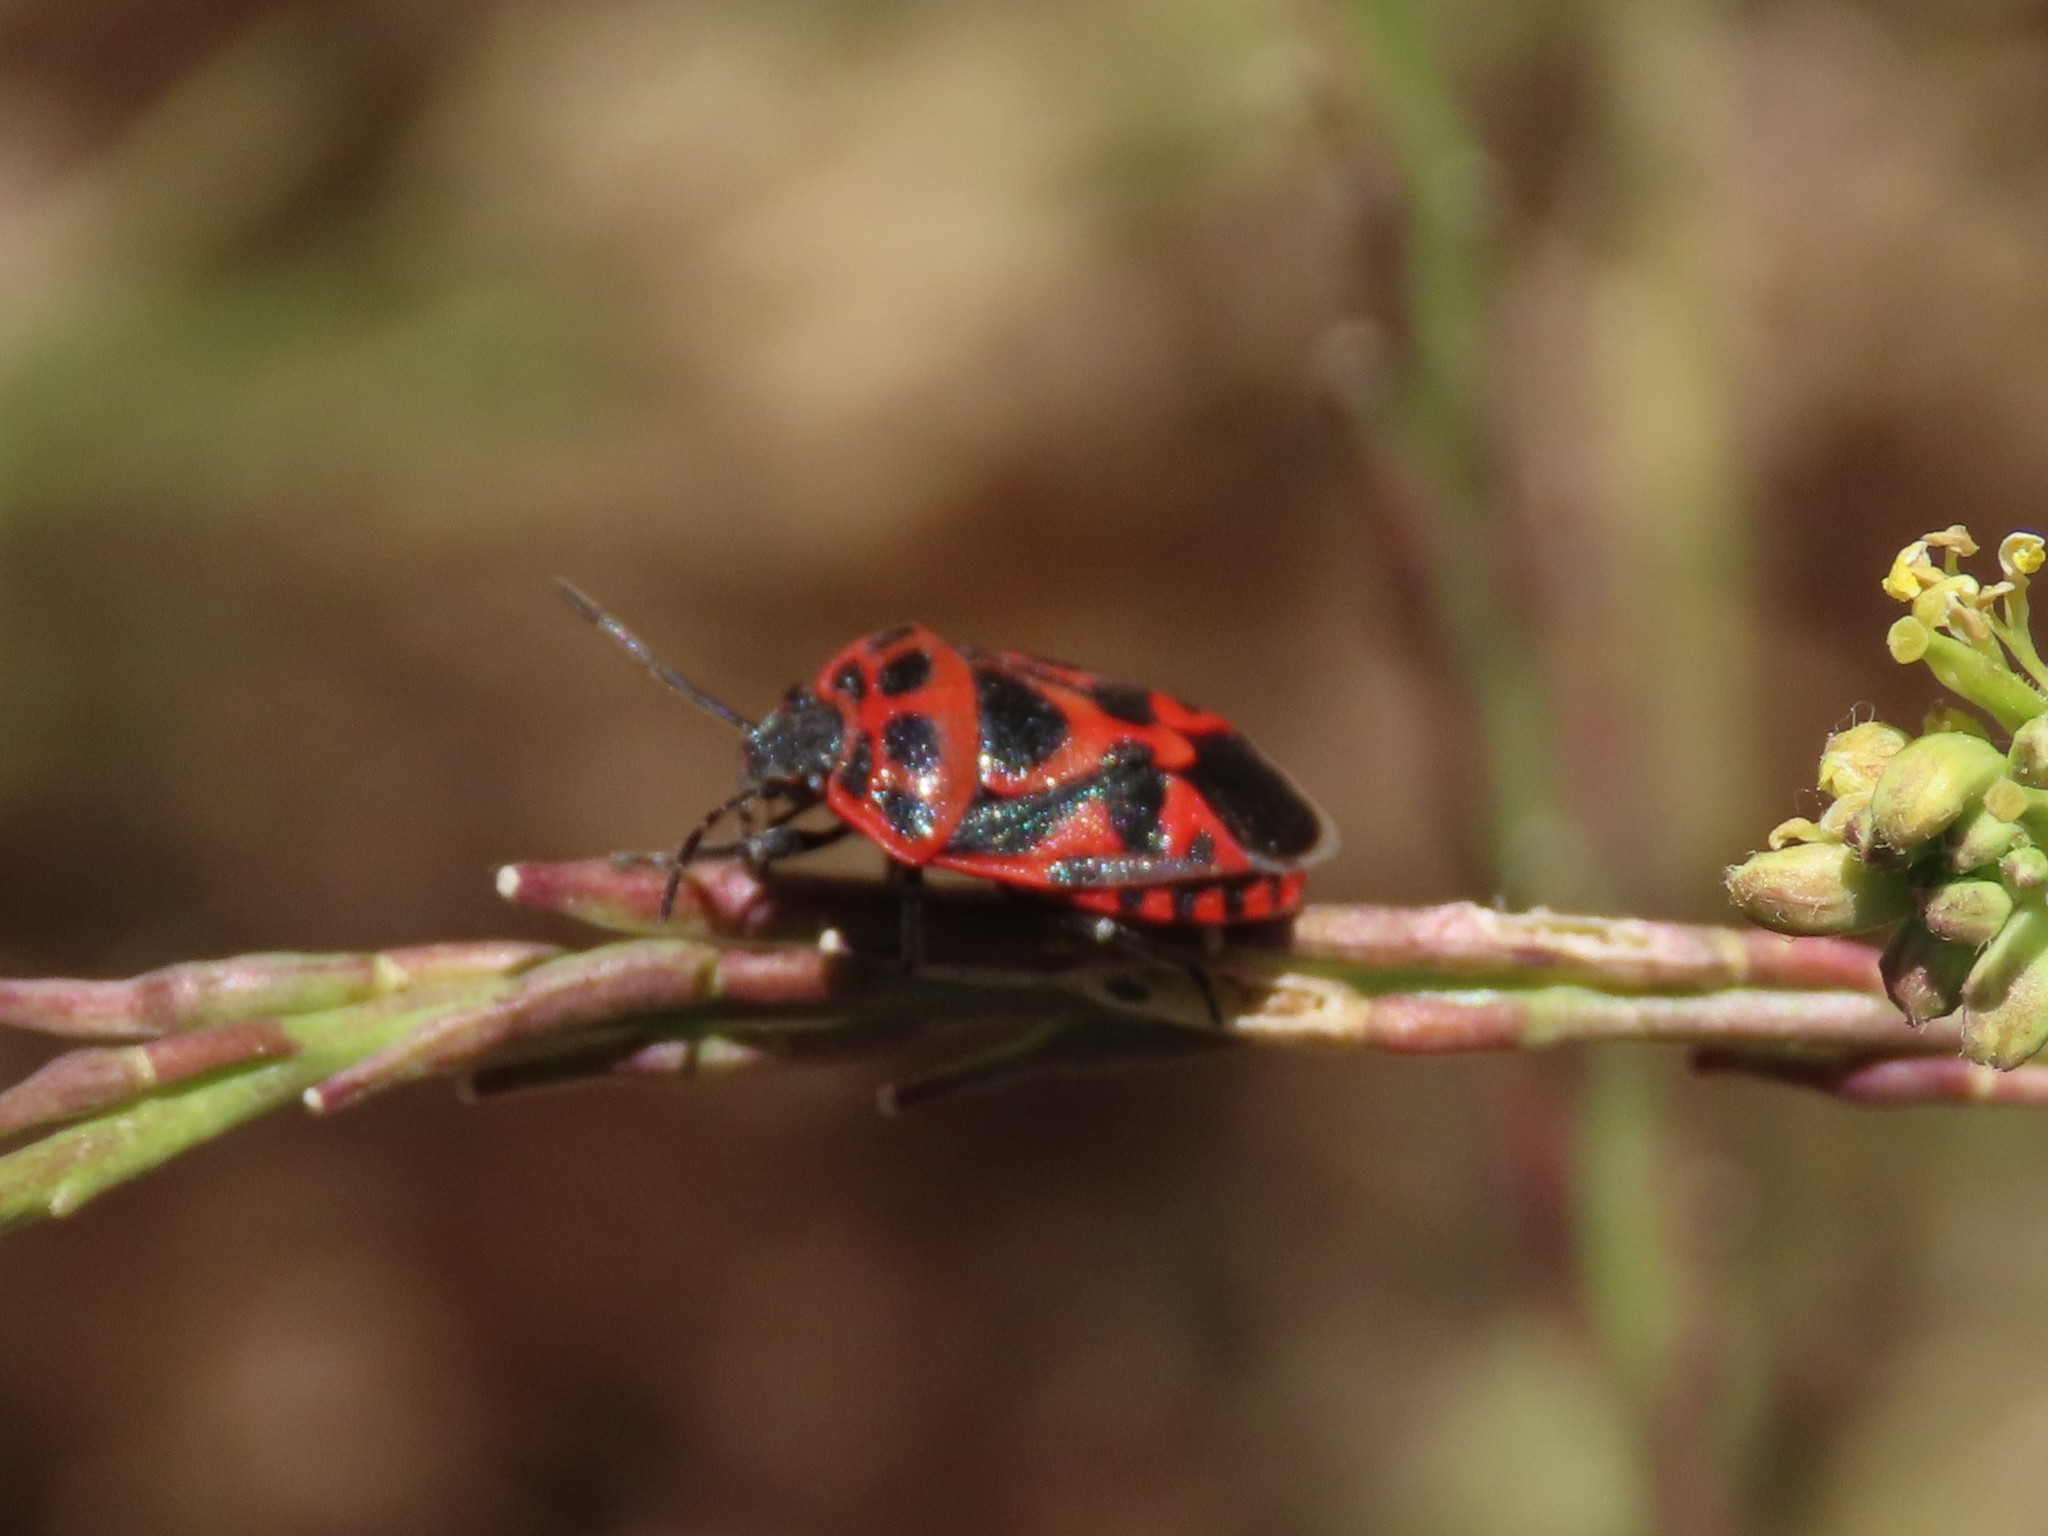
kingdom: Animalia
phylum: Arthropoda
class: Insecta
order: Hemiptera
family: Pentatomidae
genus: Eurydema
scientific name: Eurydema ornata
